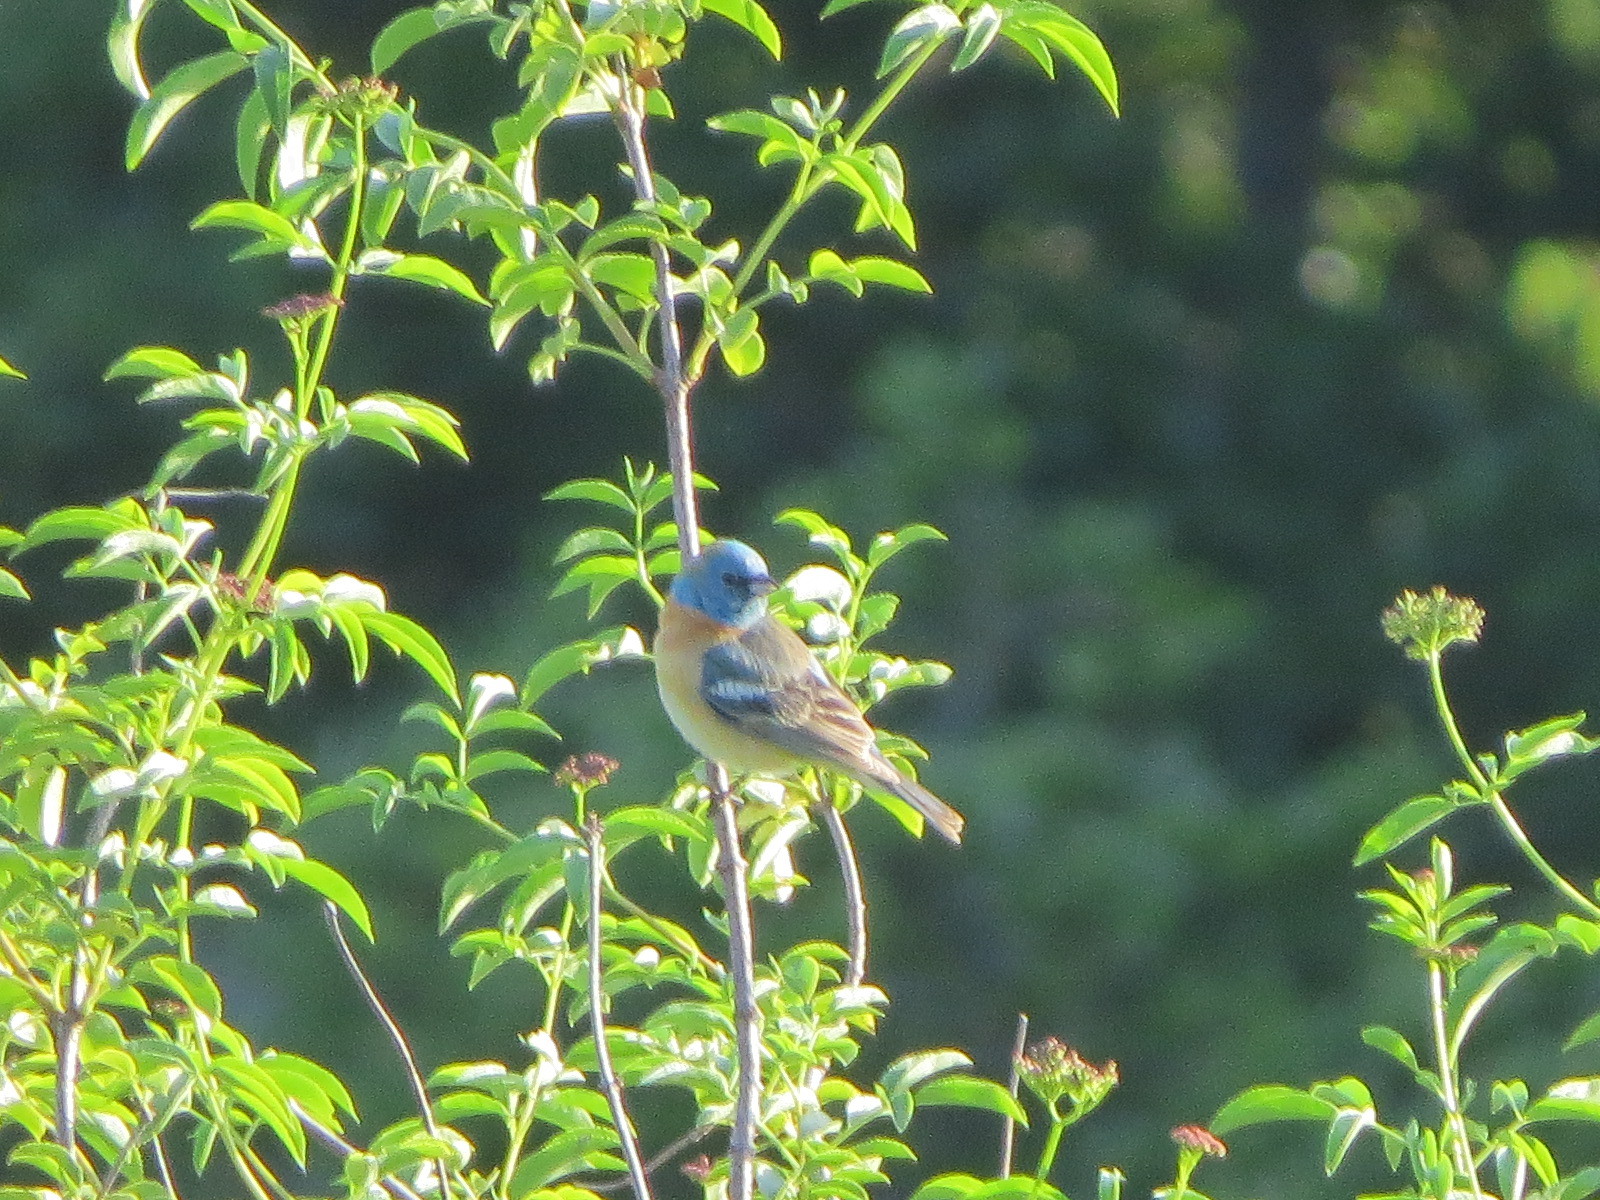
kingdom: Animalia
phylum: Chordata
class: Aves
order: Passeriformes
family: Cardinalidae
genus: Passerina
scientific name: Passerina amoena
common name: Lazuli bunting
